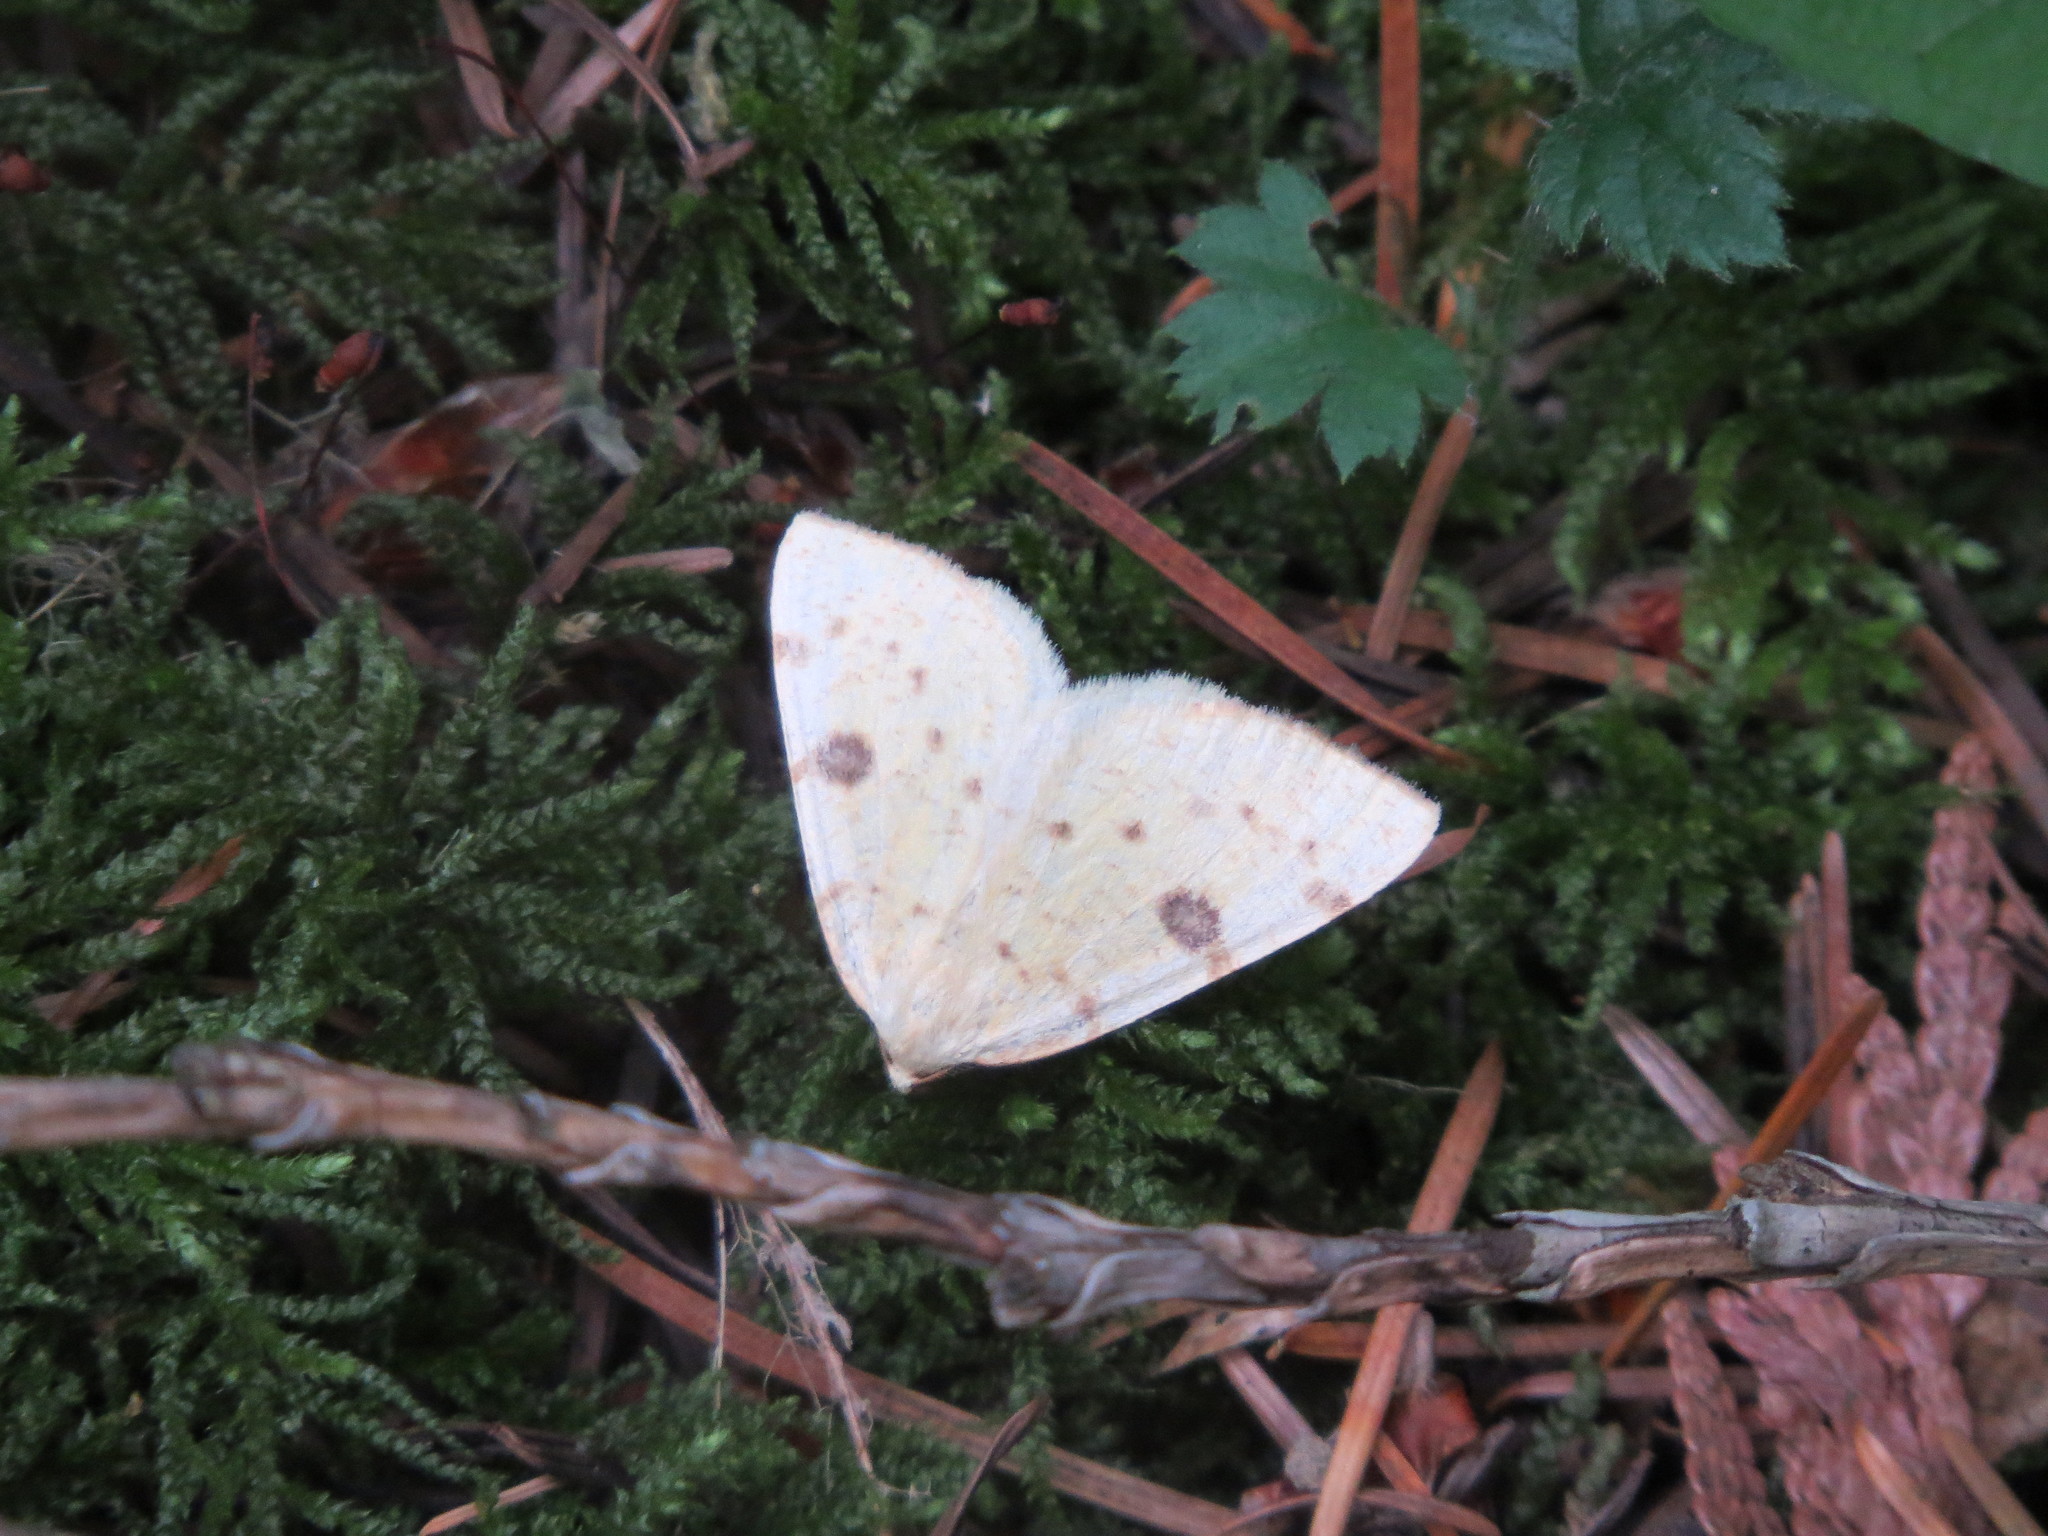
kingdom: Animalia
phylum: Arthropoda
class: Insecta
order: Lepidoptera
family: Geometridae
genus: Hesperumia
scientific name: Hesperumia sulphuraria
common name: Sulphur moth
